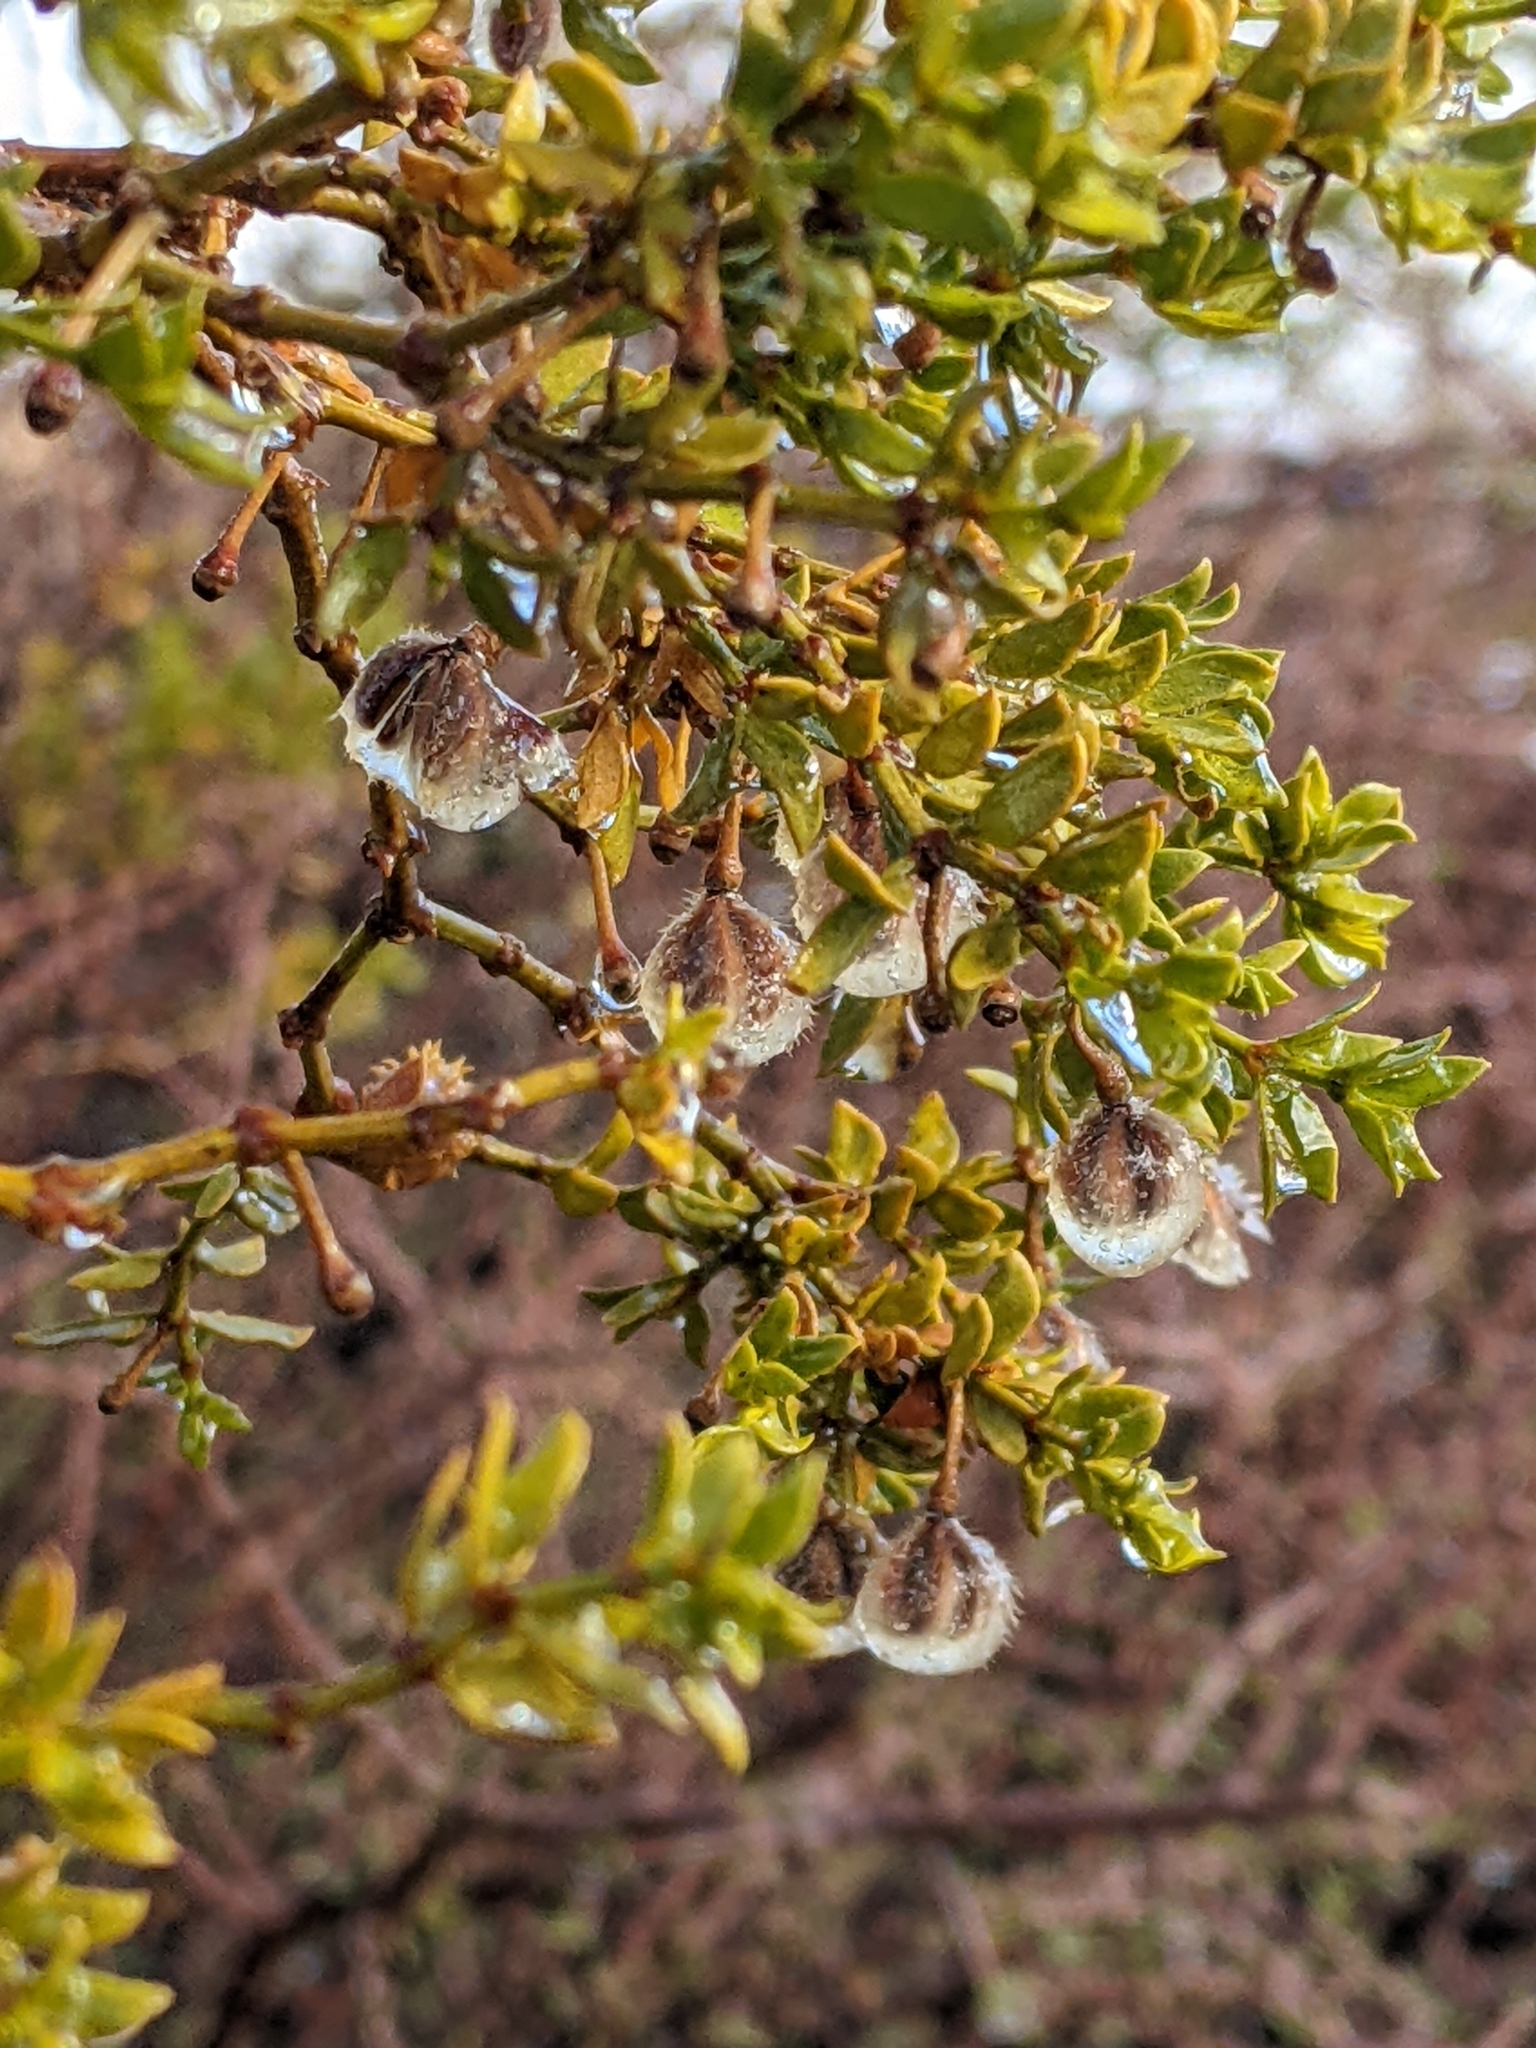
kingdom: Plantae
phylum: Tracheophyta
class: Magnoliopsida
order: Zygophyllales
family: Zygophyllaceae
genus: Larrea
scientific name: Larrea tridentata
